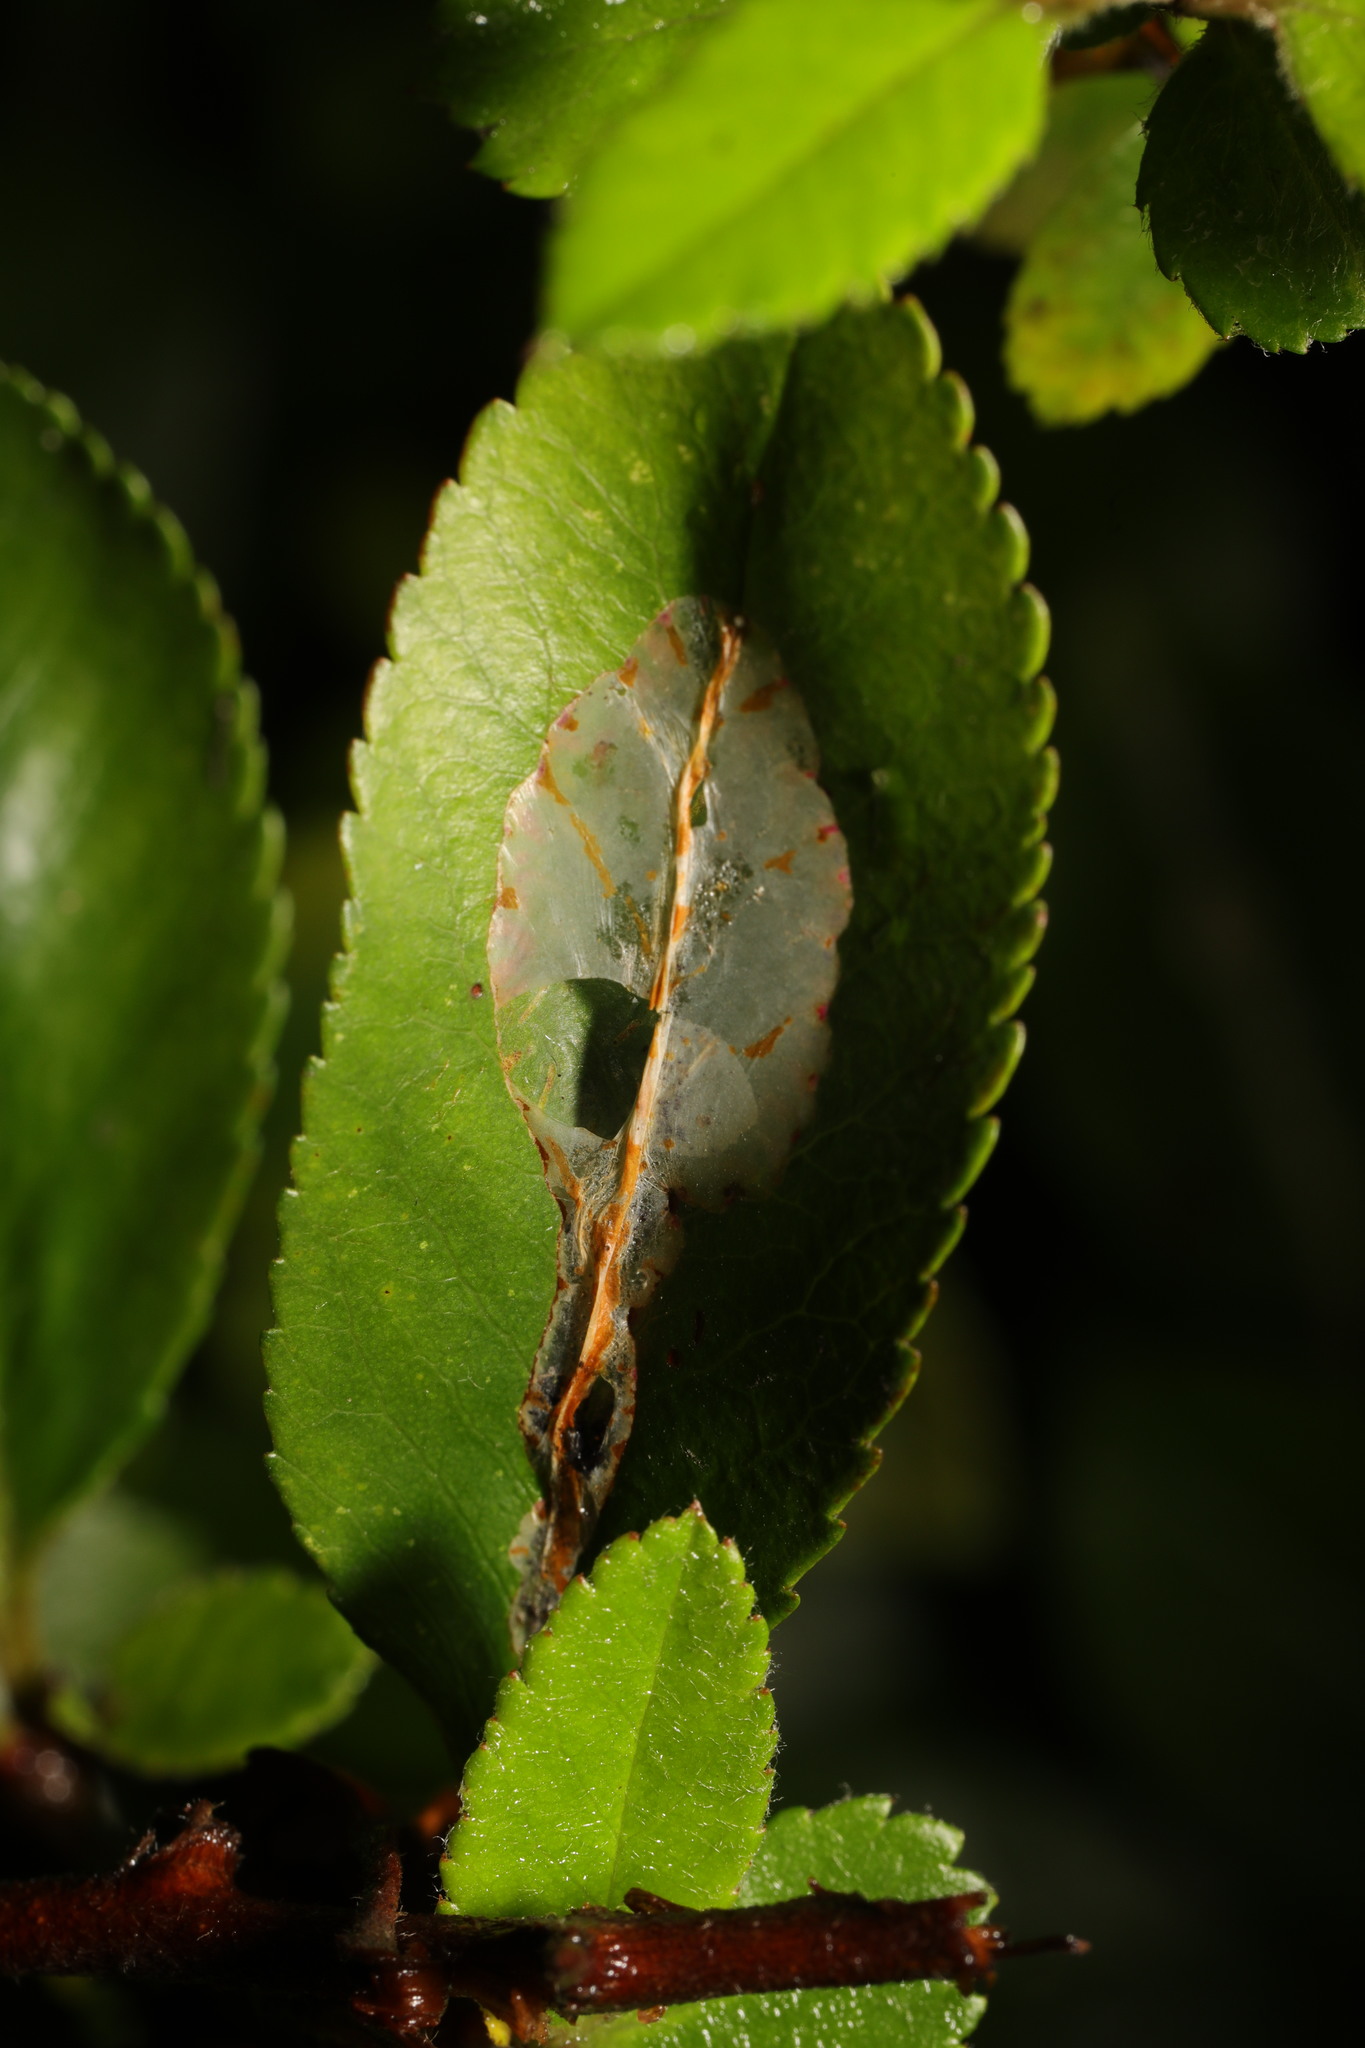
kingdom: Animalia
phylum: Arthropoda
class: Insecta
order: Lepidoptera
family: Gracillariidae
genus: Phyllonorycter
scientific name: Phyllonorycter leucographella
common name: Firethorn leaf-miner
